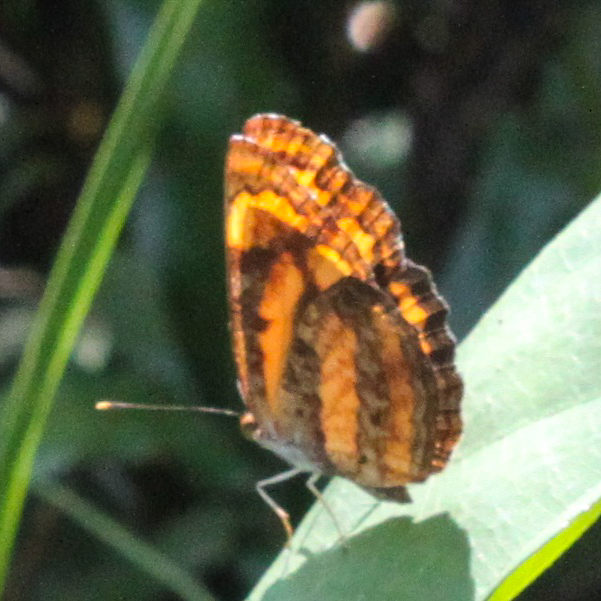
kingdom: Animalia
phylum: Arthropoda
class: Insecta
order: Lepidoptera
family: Nymphalidae
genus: Pantoporia
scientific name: Pantoporia hordonia
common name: Common lascar
